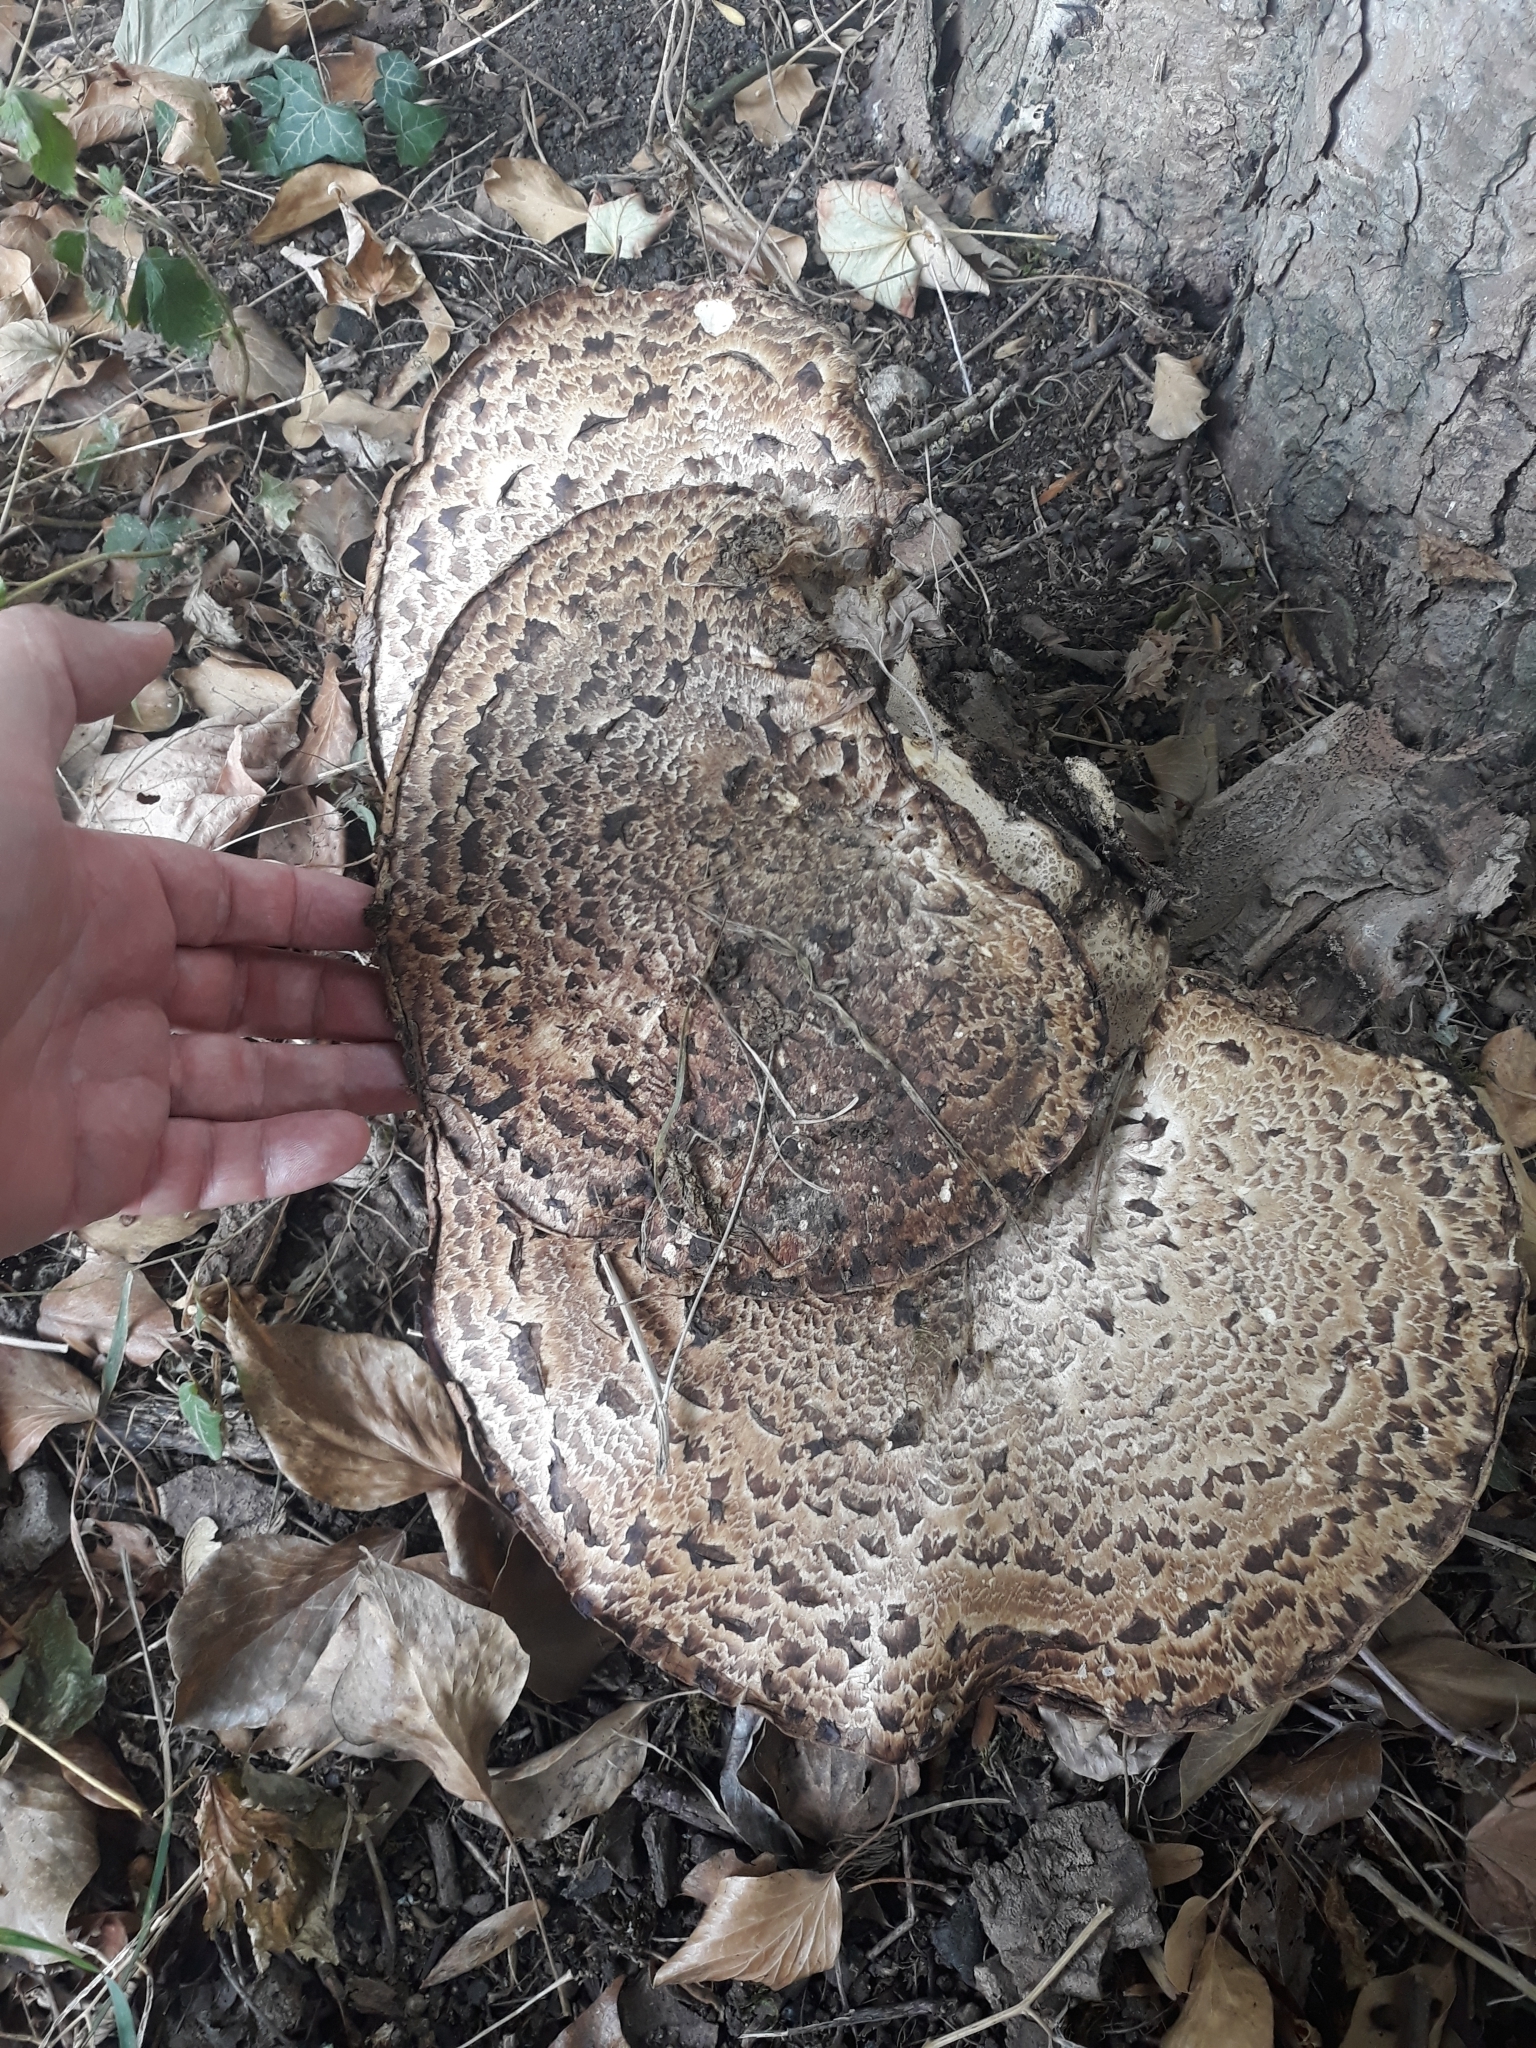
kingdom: Fungi
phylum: Basidiomycota
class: Agaricomycetes
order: Polyporales
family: Polyporaceae
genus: Cerioporus
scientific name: Cerioporus squamosus
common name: Dryad's saddle
